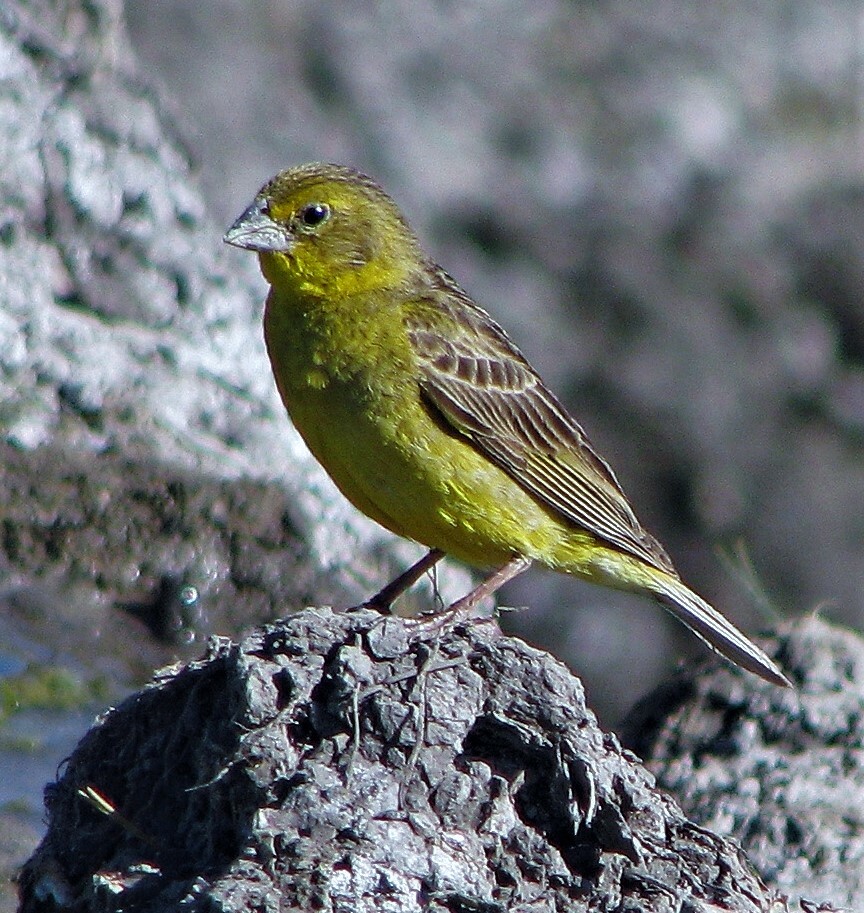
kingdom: Animalia
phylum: Chordata
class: Aves
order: Passeriformes
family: Thraupidae
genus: Sicalis
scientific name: Sicalis luteola
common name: Grassland yellow-finch
